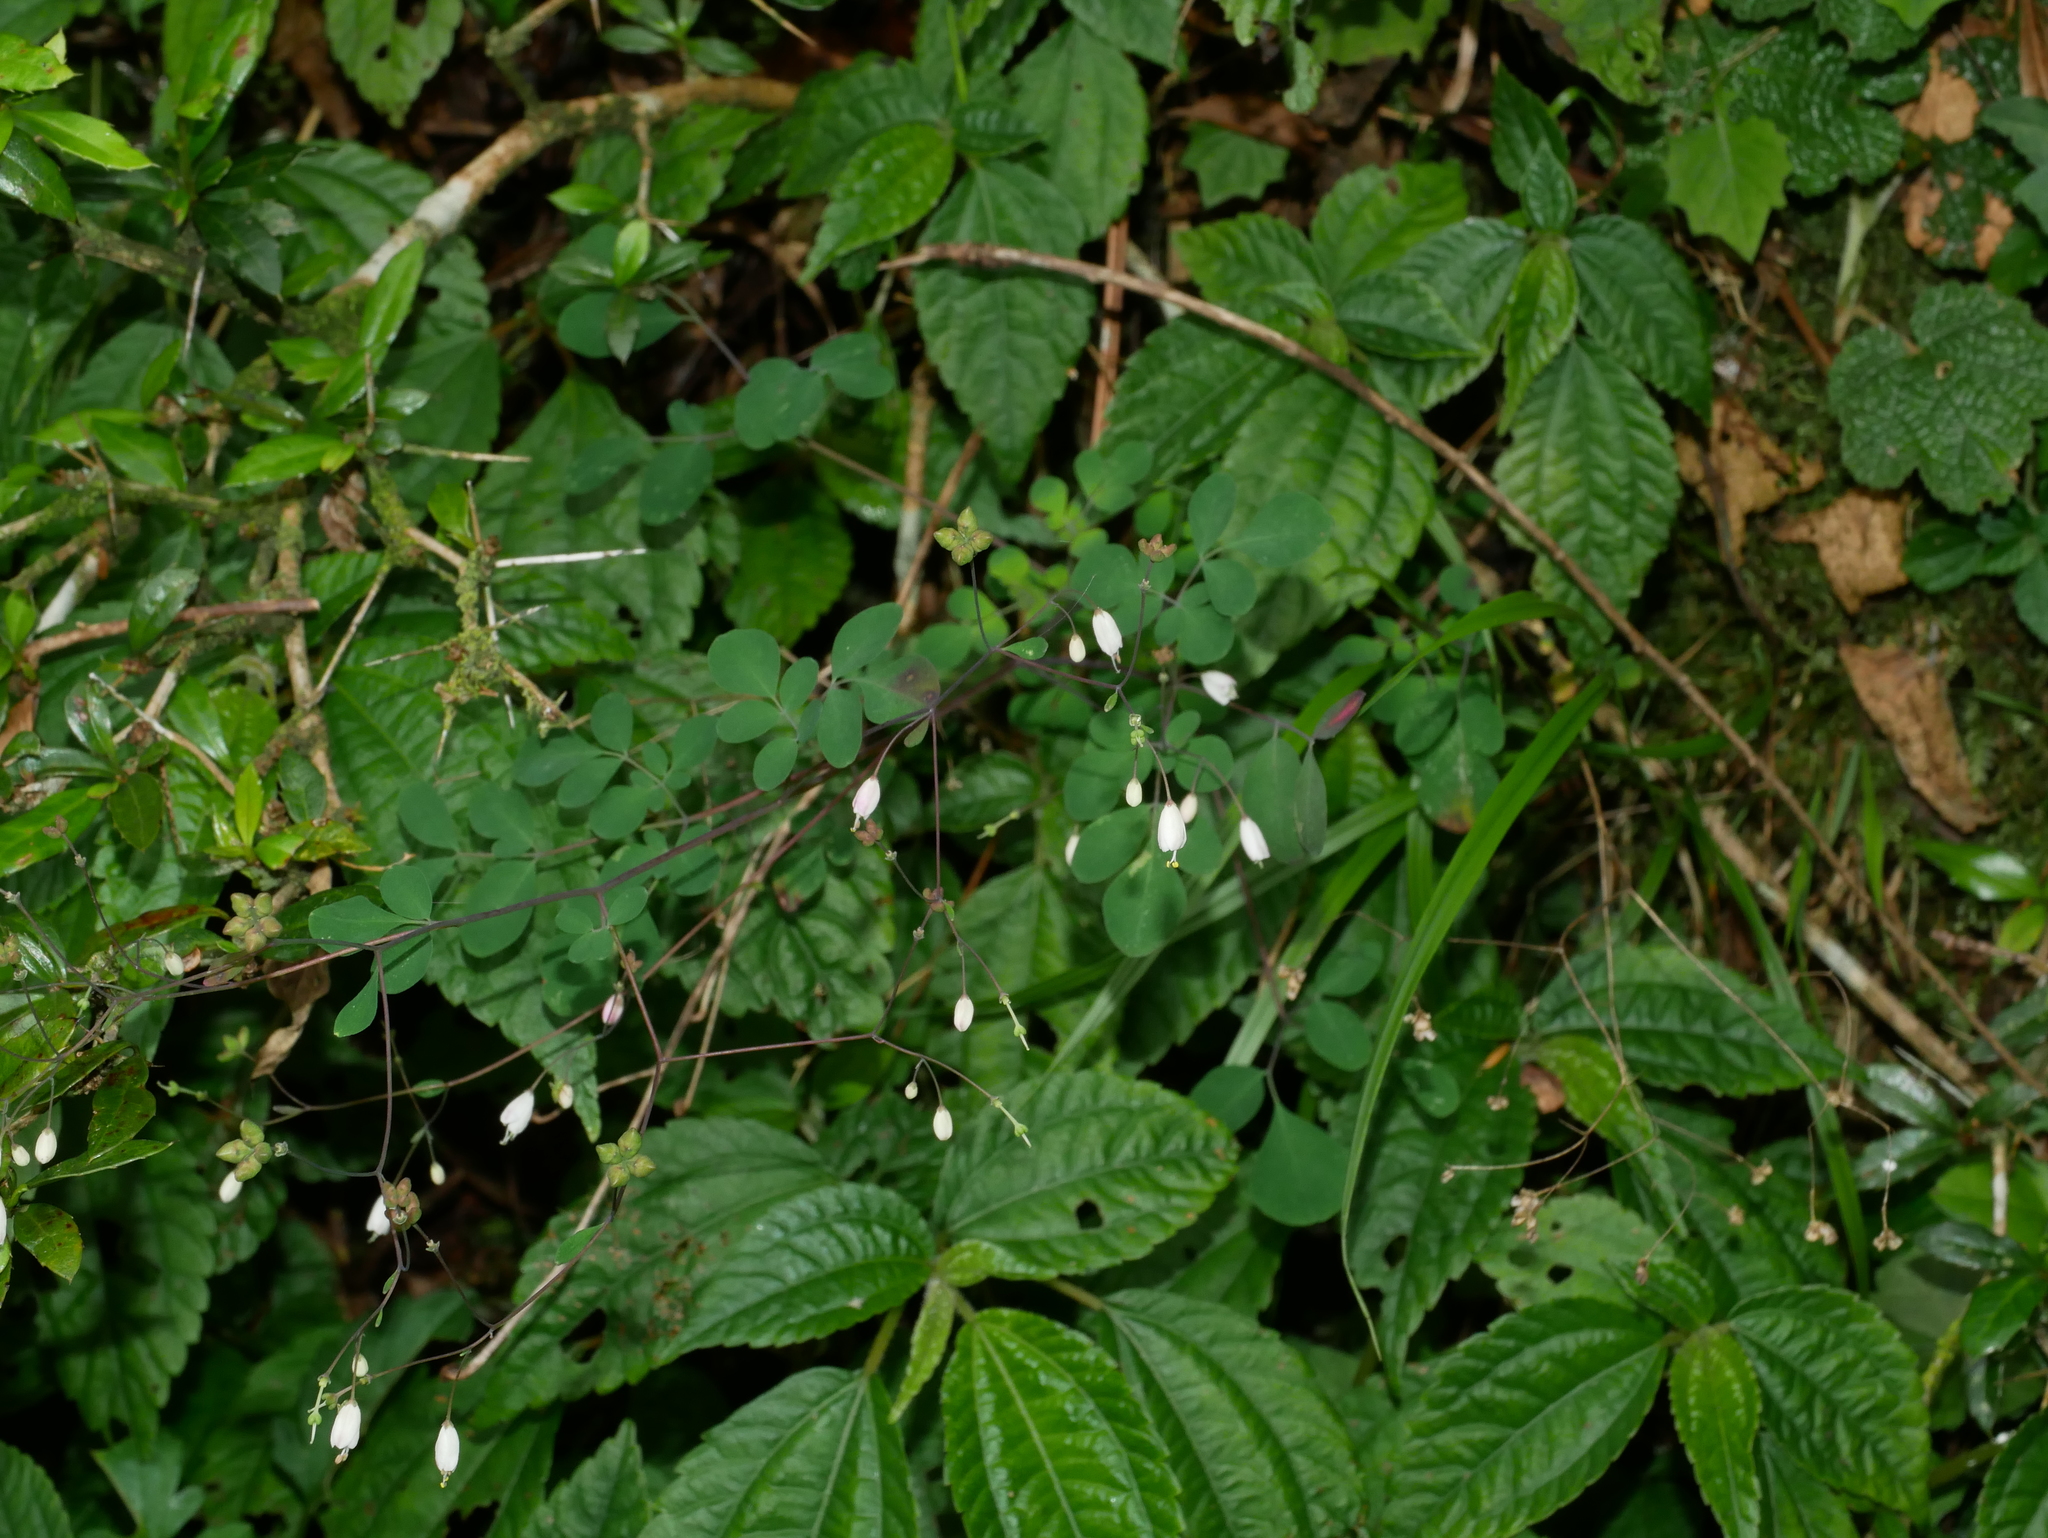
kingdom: Plantae
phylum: Tracheophyta
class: Magnoliopsida
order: Sapindales
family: Rutaceae
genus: Boenninghausenia
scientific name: Boenninghausenia albiflora
